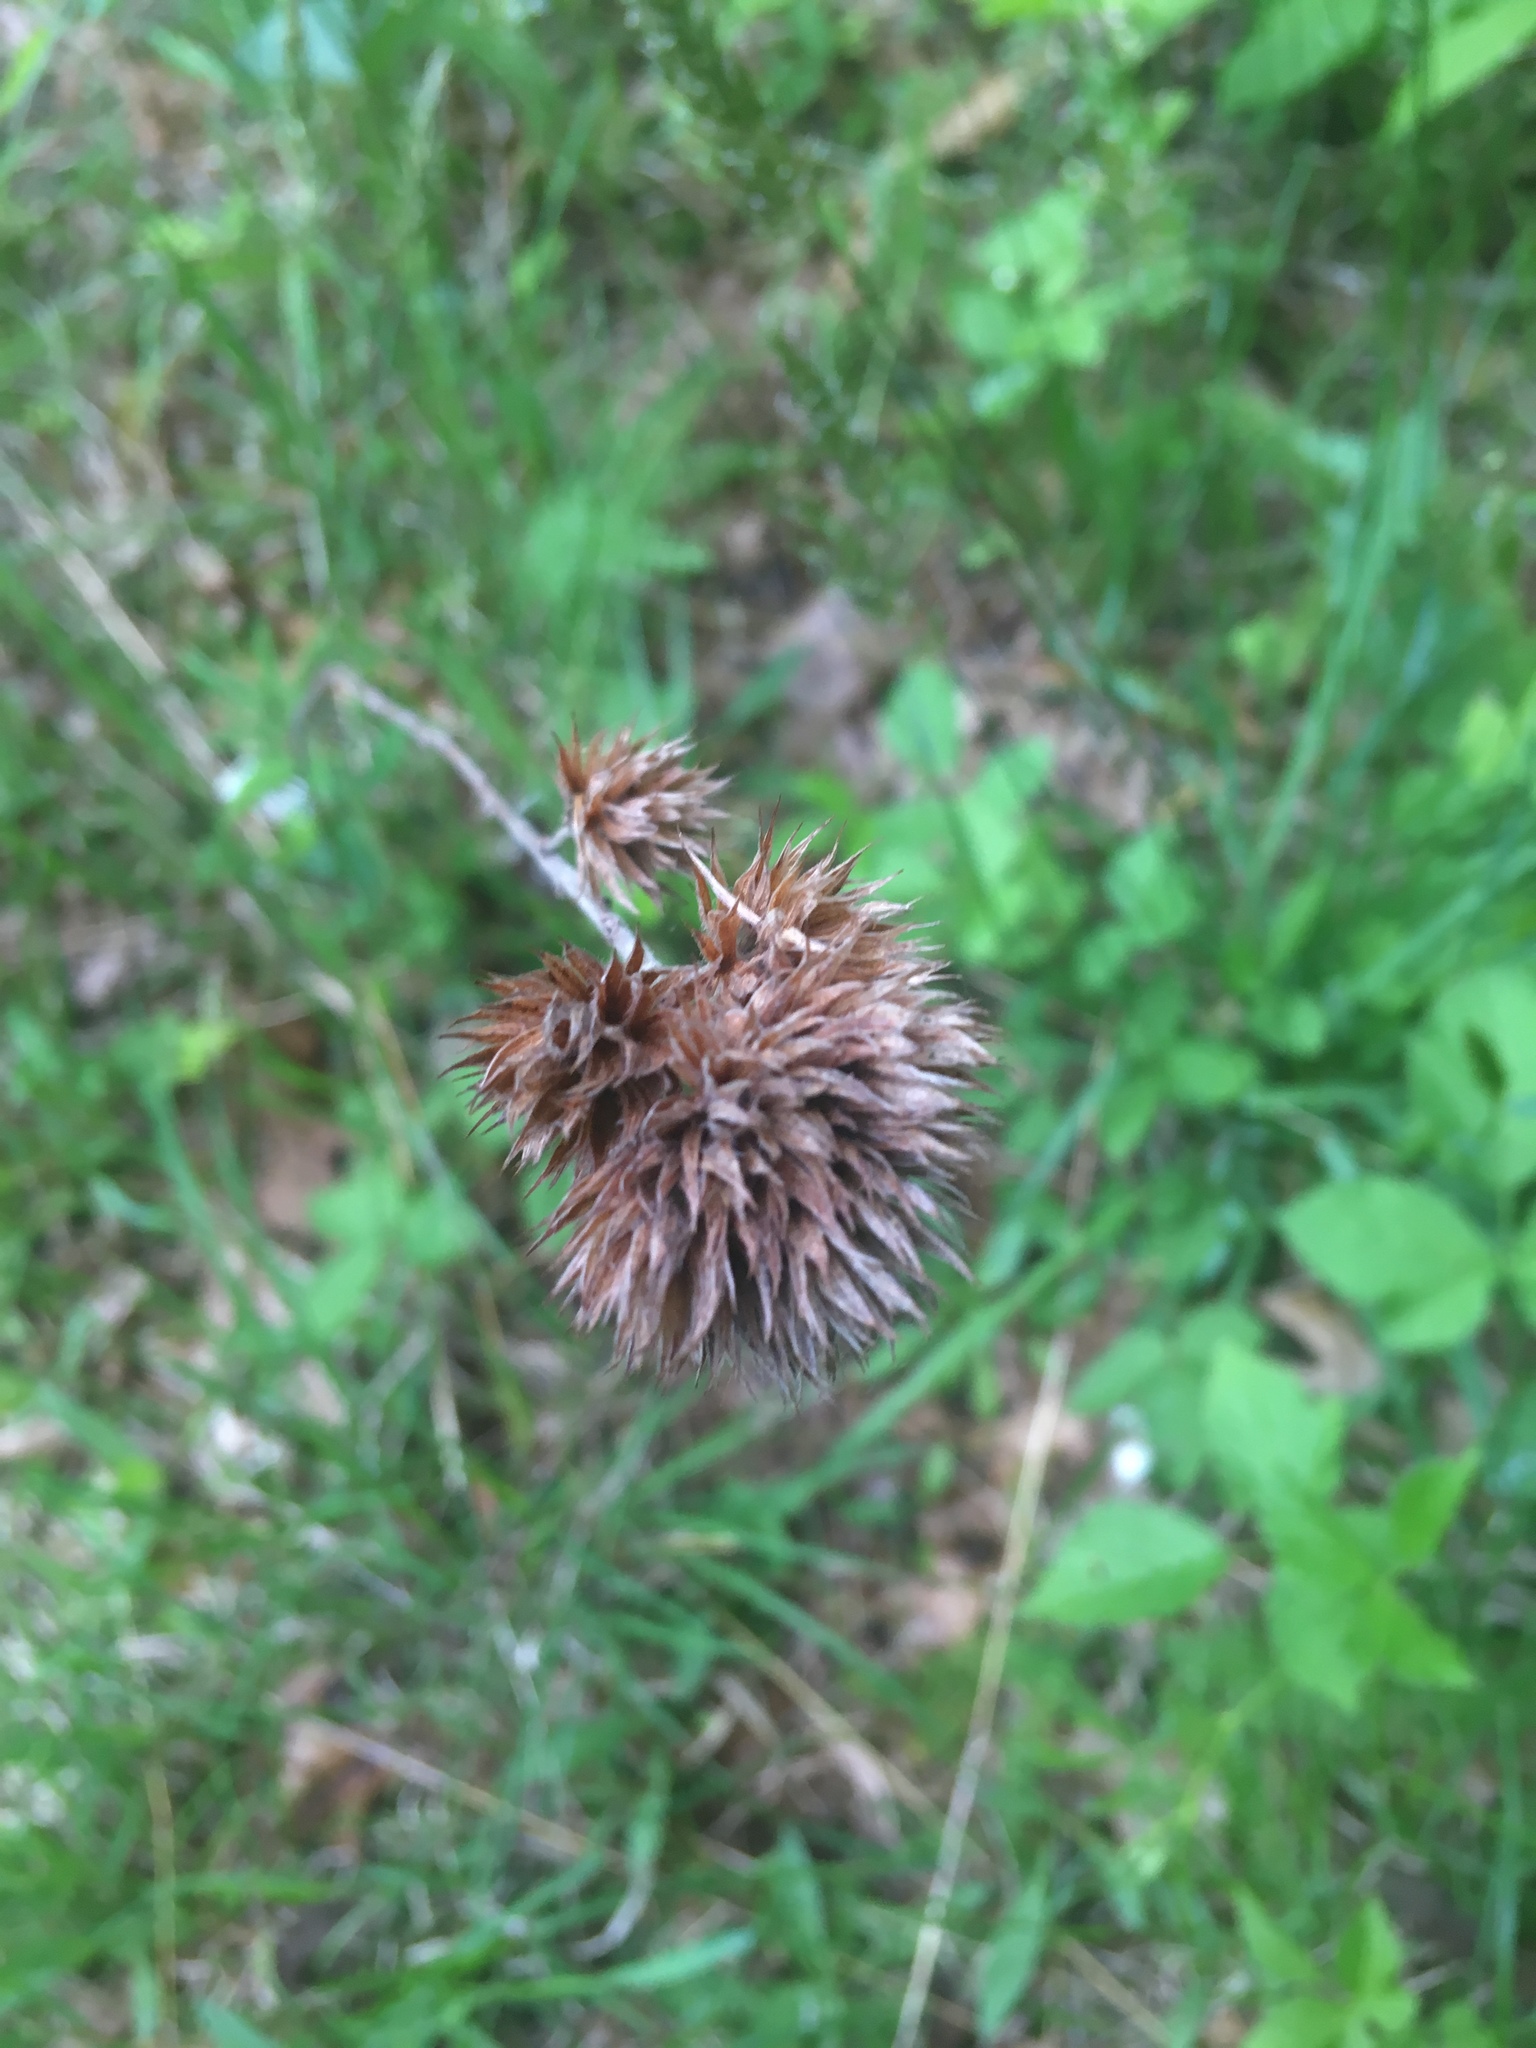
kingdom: Plantae
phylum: Tracheophyta
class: Magnoliopsida
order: Fabales
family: Fabaceae
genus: Lespedeza
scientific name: Lespedeza capitata
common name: Dusty clover
